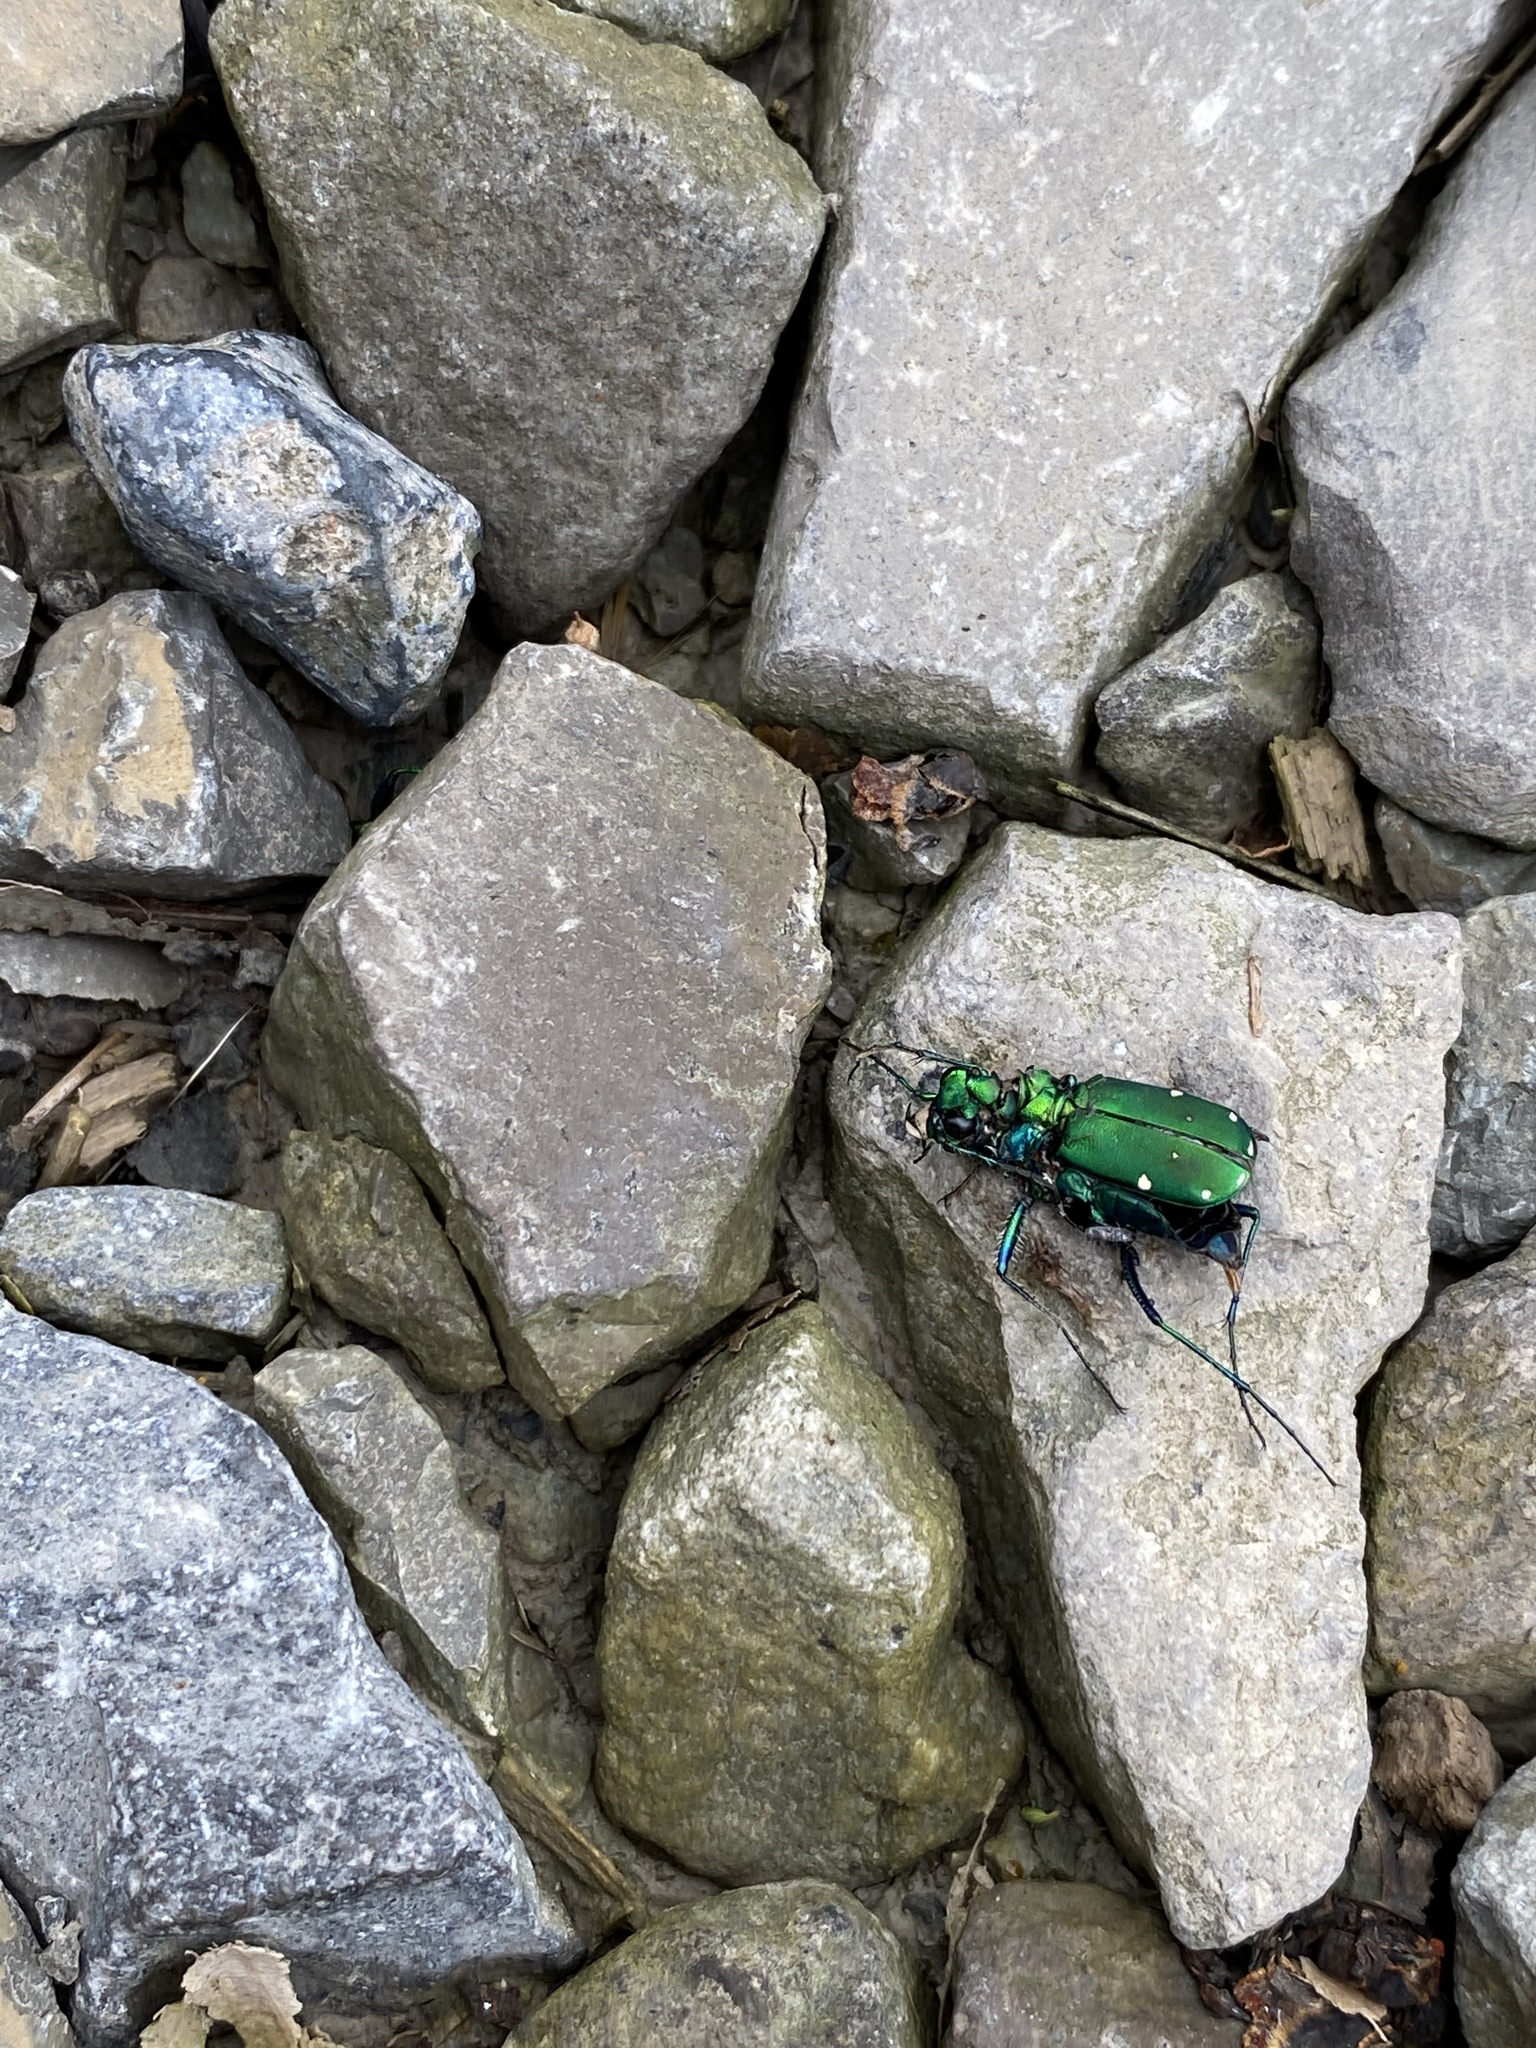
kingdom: Animalia
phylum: Arthropoda
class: Insecta
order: Coleoptera
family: Carabidae
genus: Cicindela
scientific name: Cicindela sexguttata
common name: Six-spotted tiger beetle
